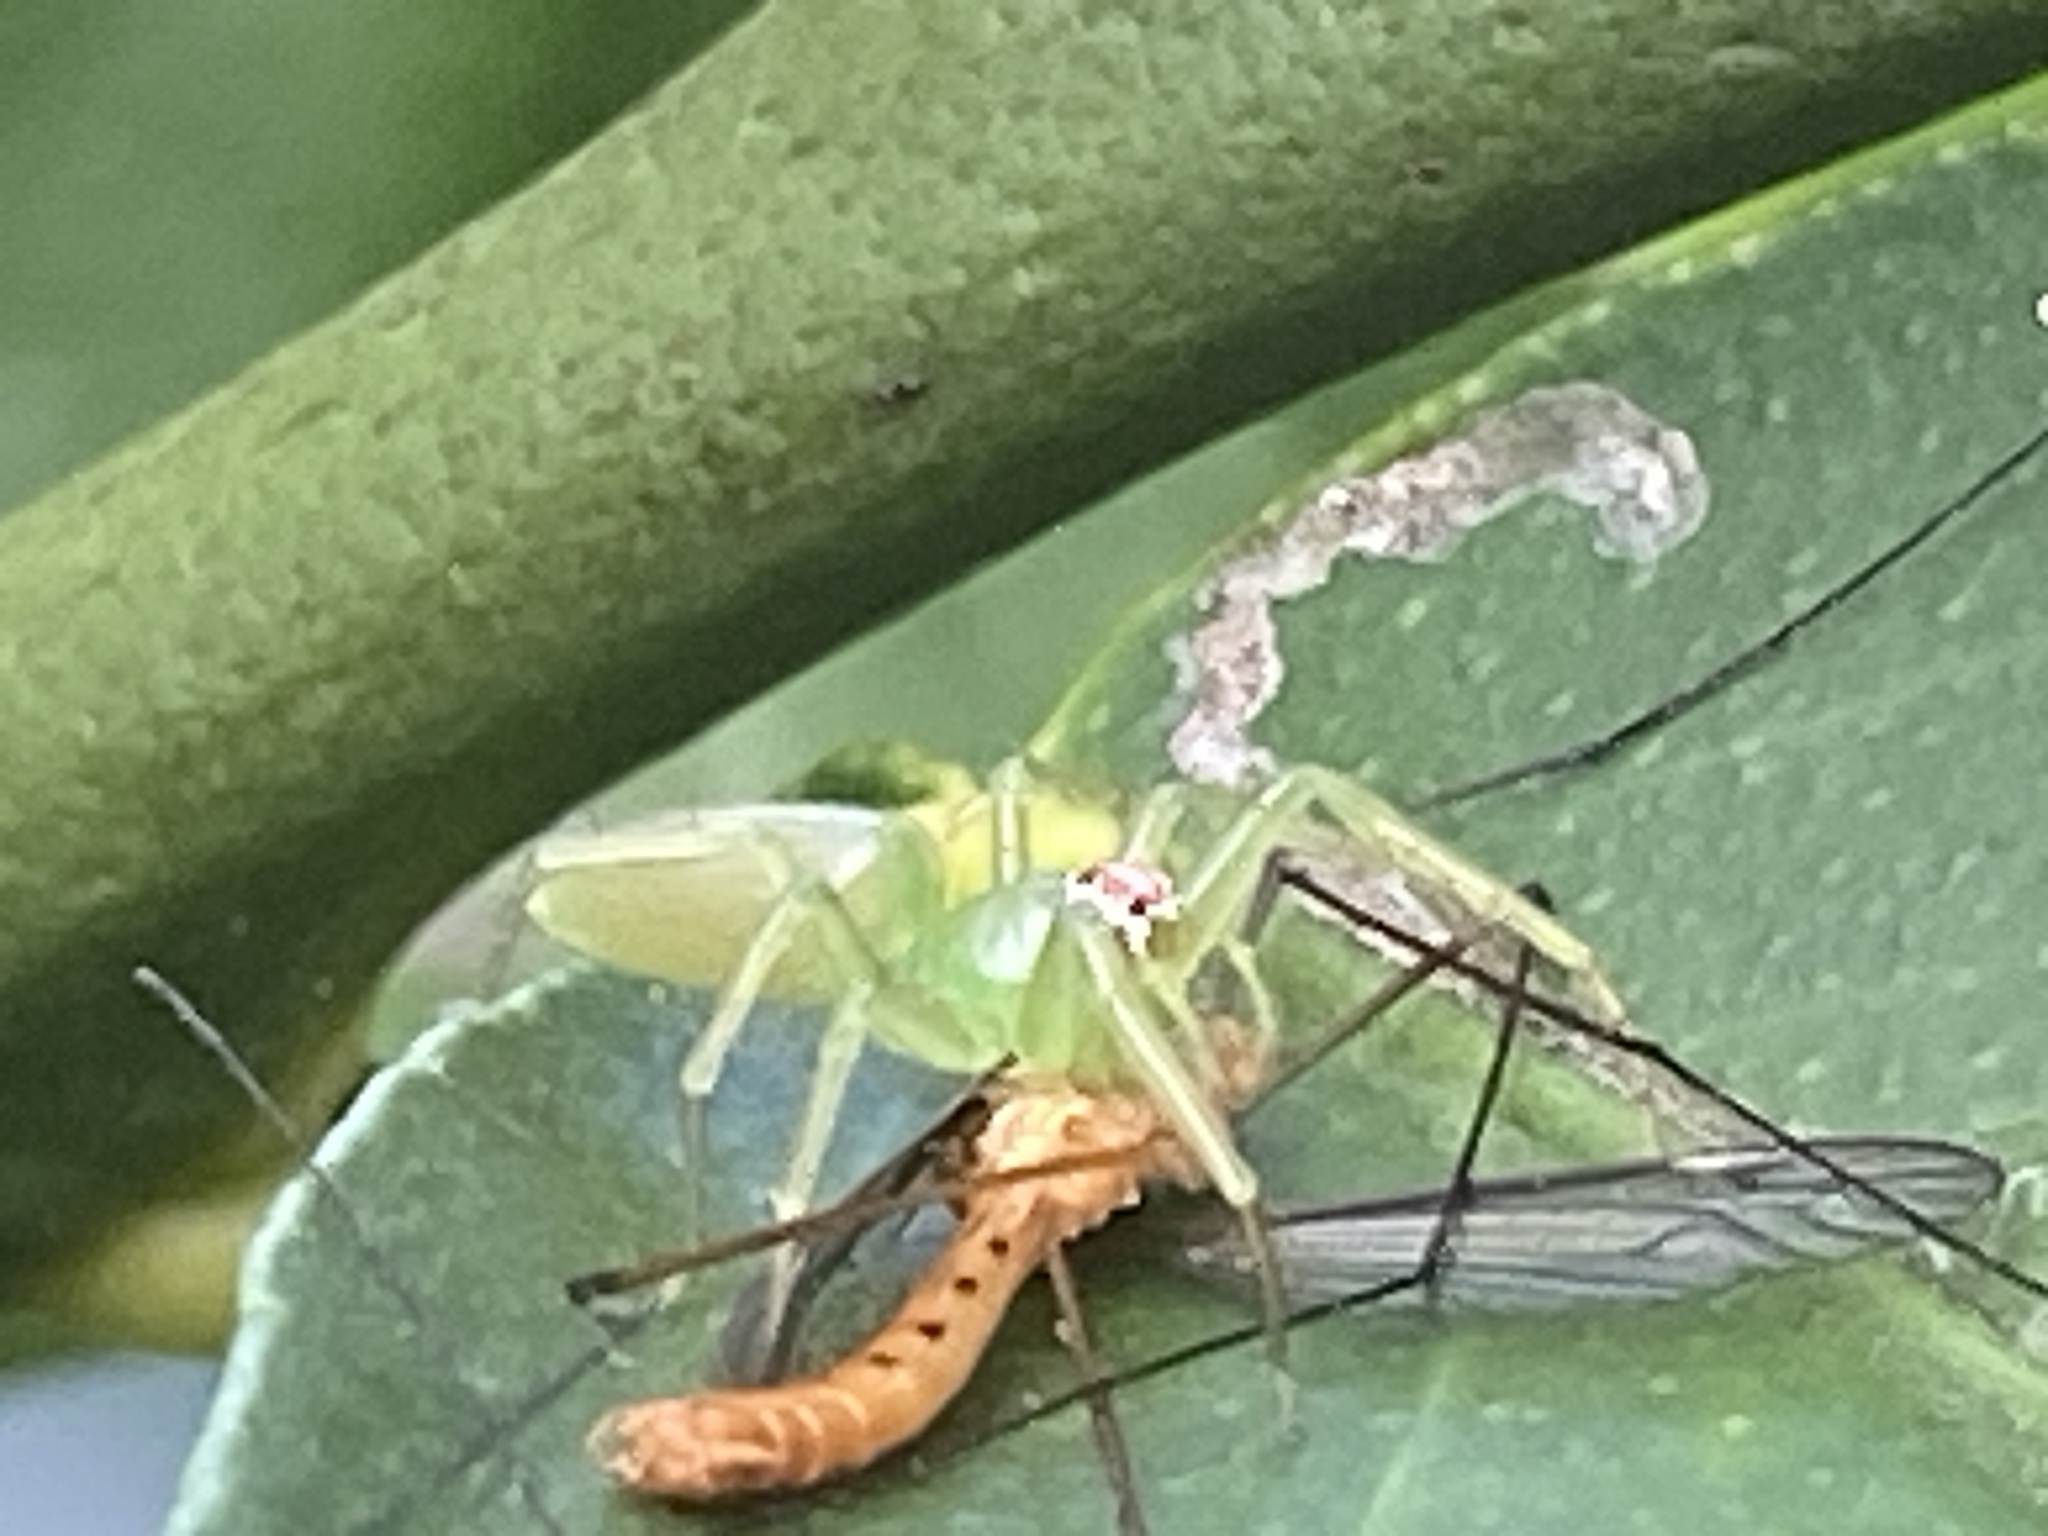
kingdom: Animalia
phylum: Arthropoda
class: Arachnida
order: Araneae
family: Salticidae
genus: Lyssomanes
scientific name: Lyssomanes viridis
